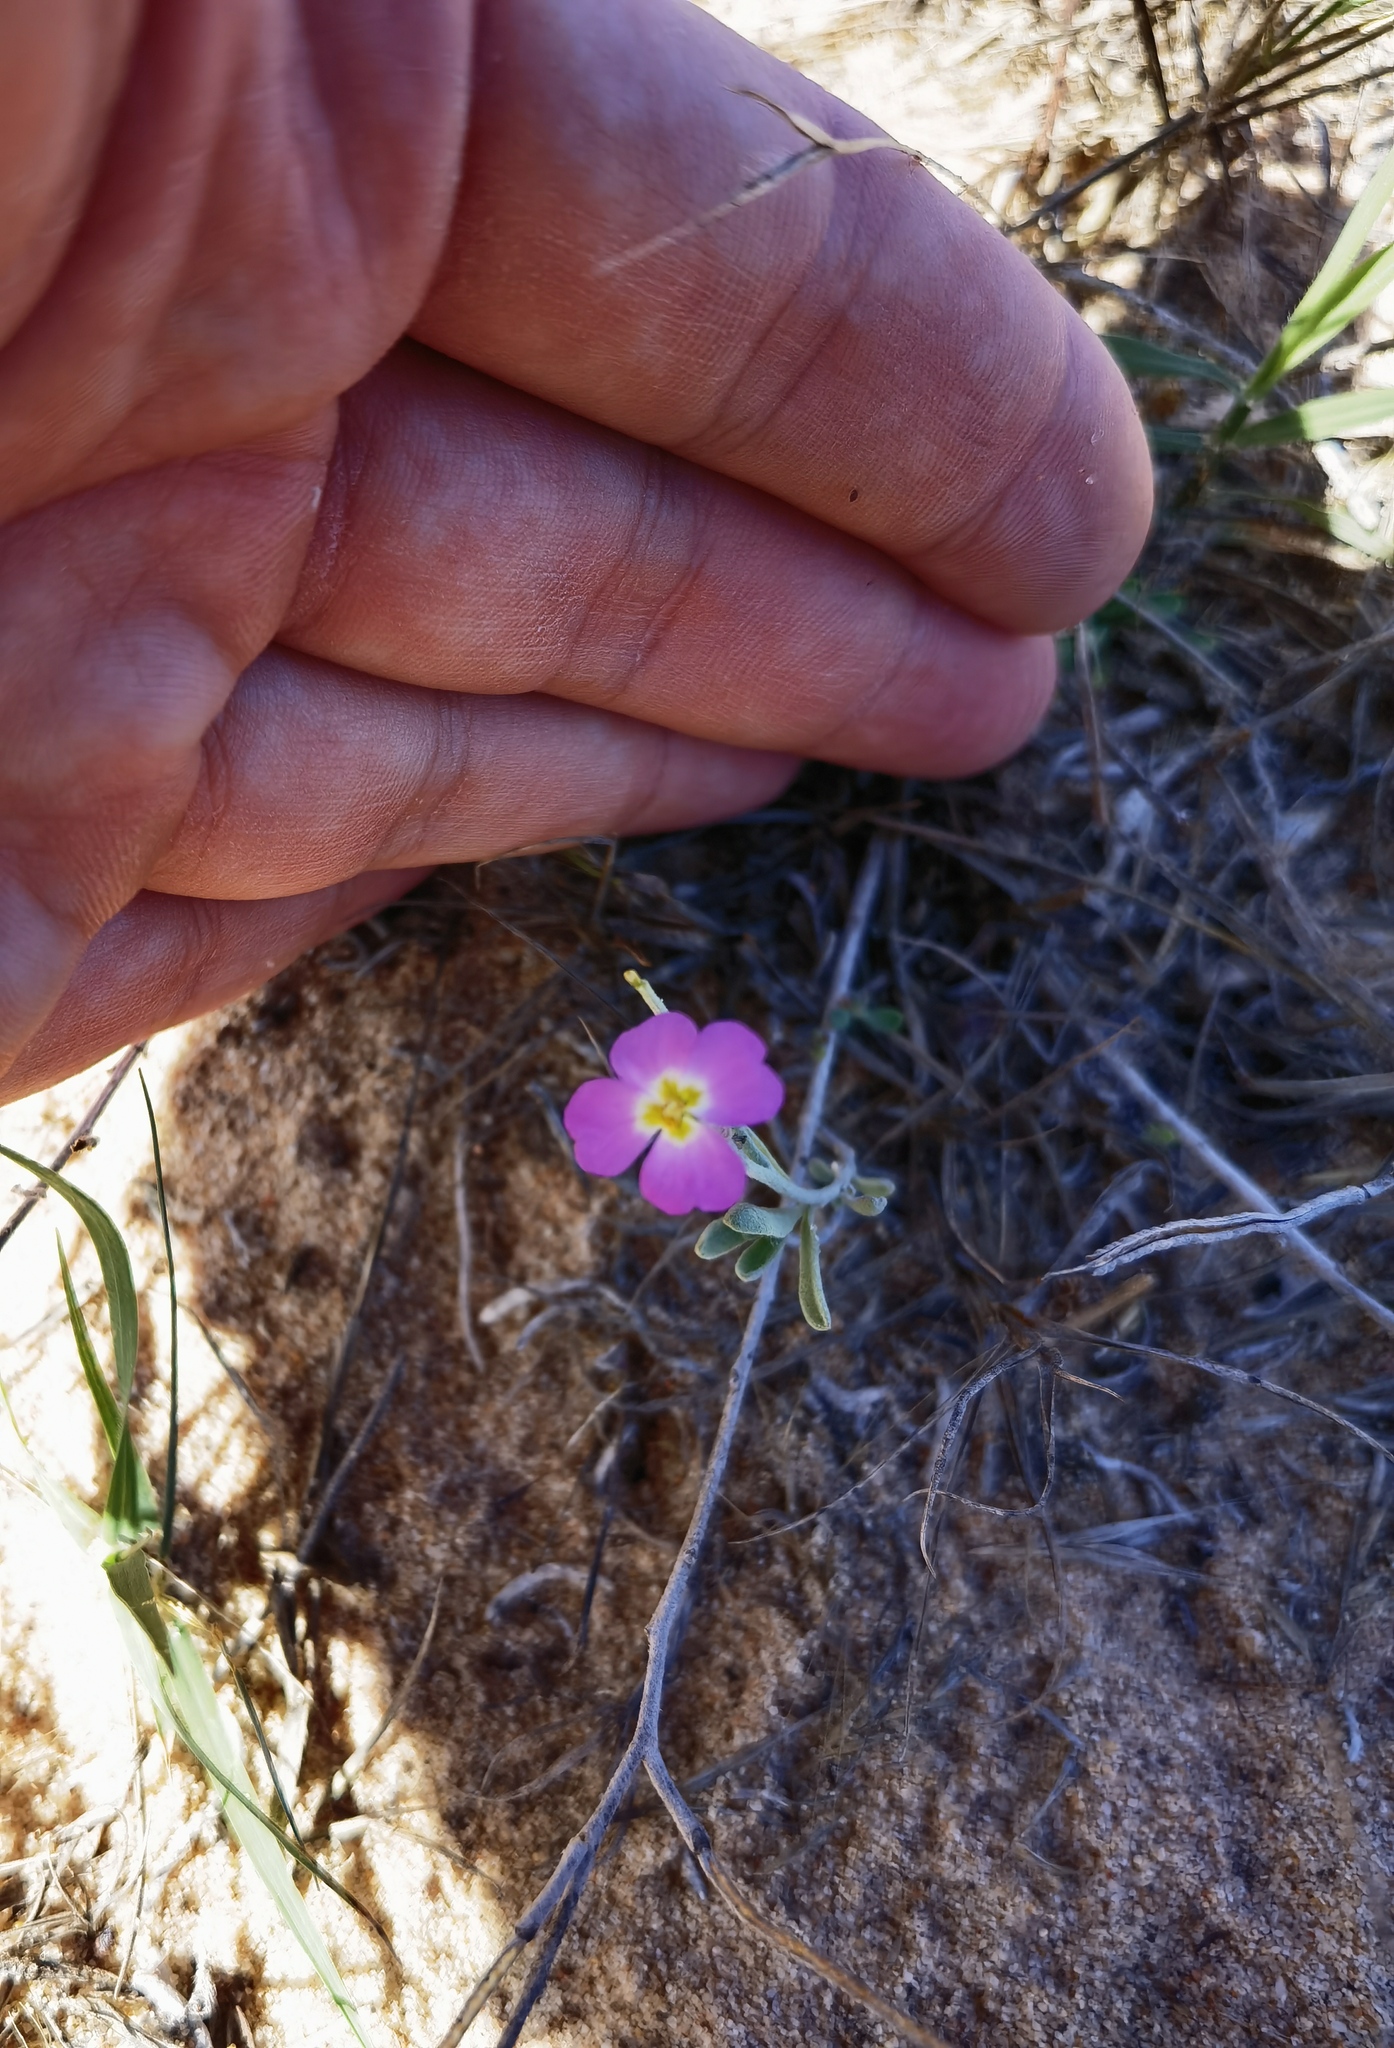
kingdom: Plantae
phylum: Tracheophyta
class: Magnoliopsida
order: Brassicales
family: Brassicaceae
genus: Marcuskochia
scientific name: Marcuskochia littorea
